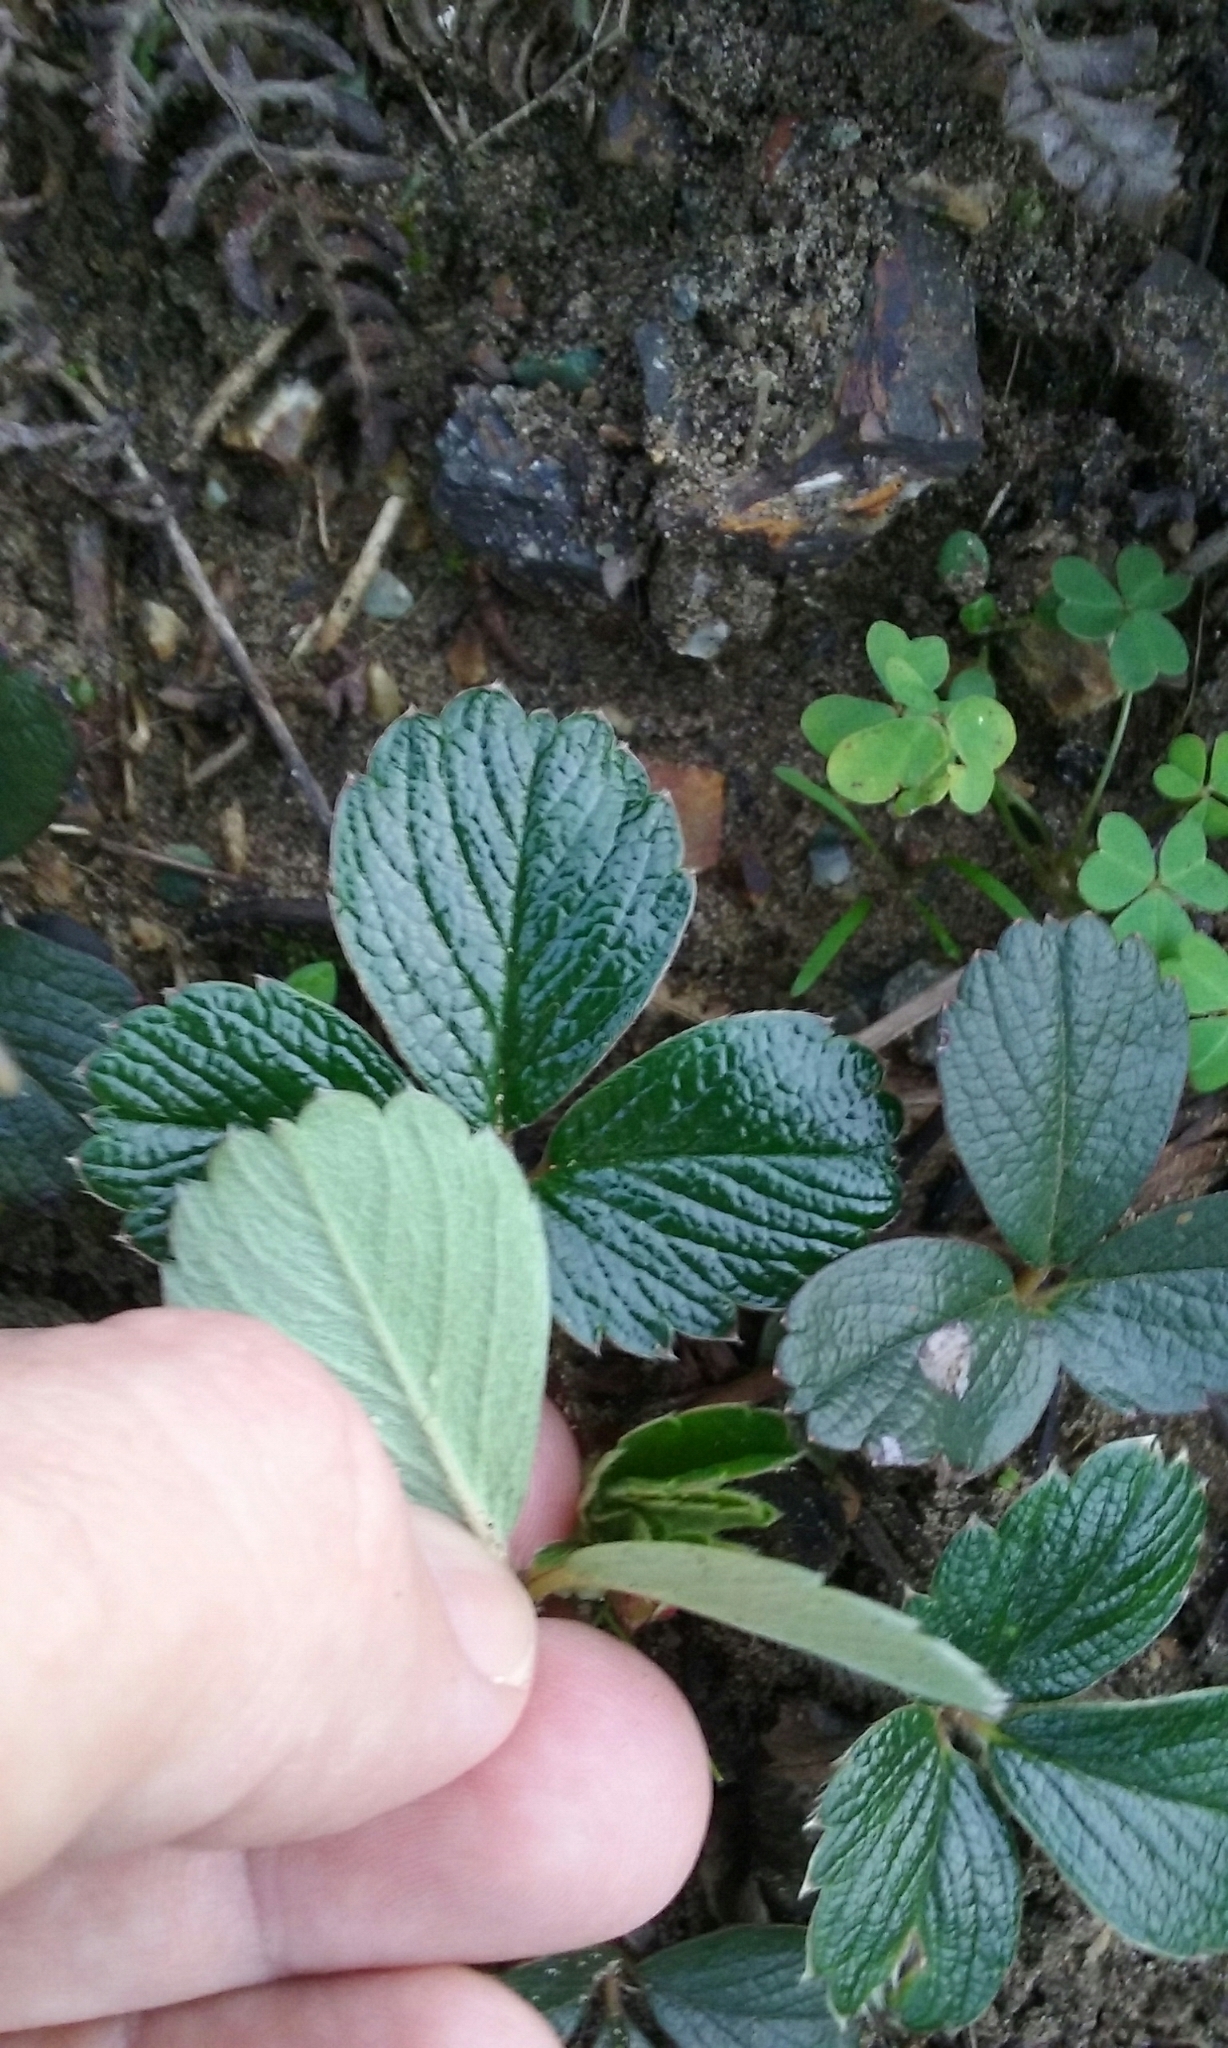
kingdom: Plantae
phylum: Tracheophyta
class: Magnoliopsida
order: Rosales
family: Rosaceae
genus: Fragaria
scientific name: Fragaria chiloensis
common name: Beach strawberry
